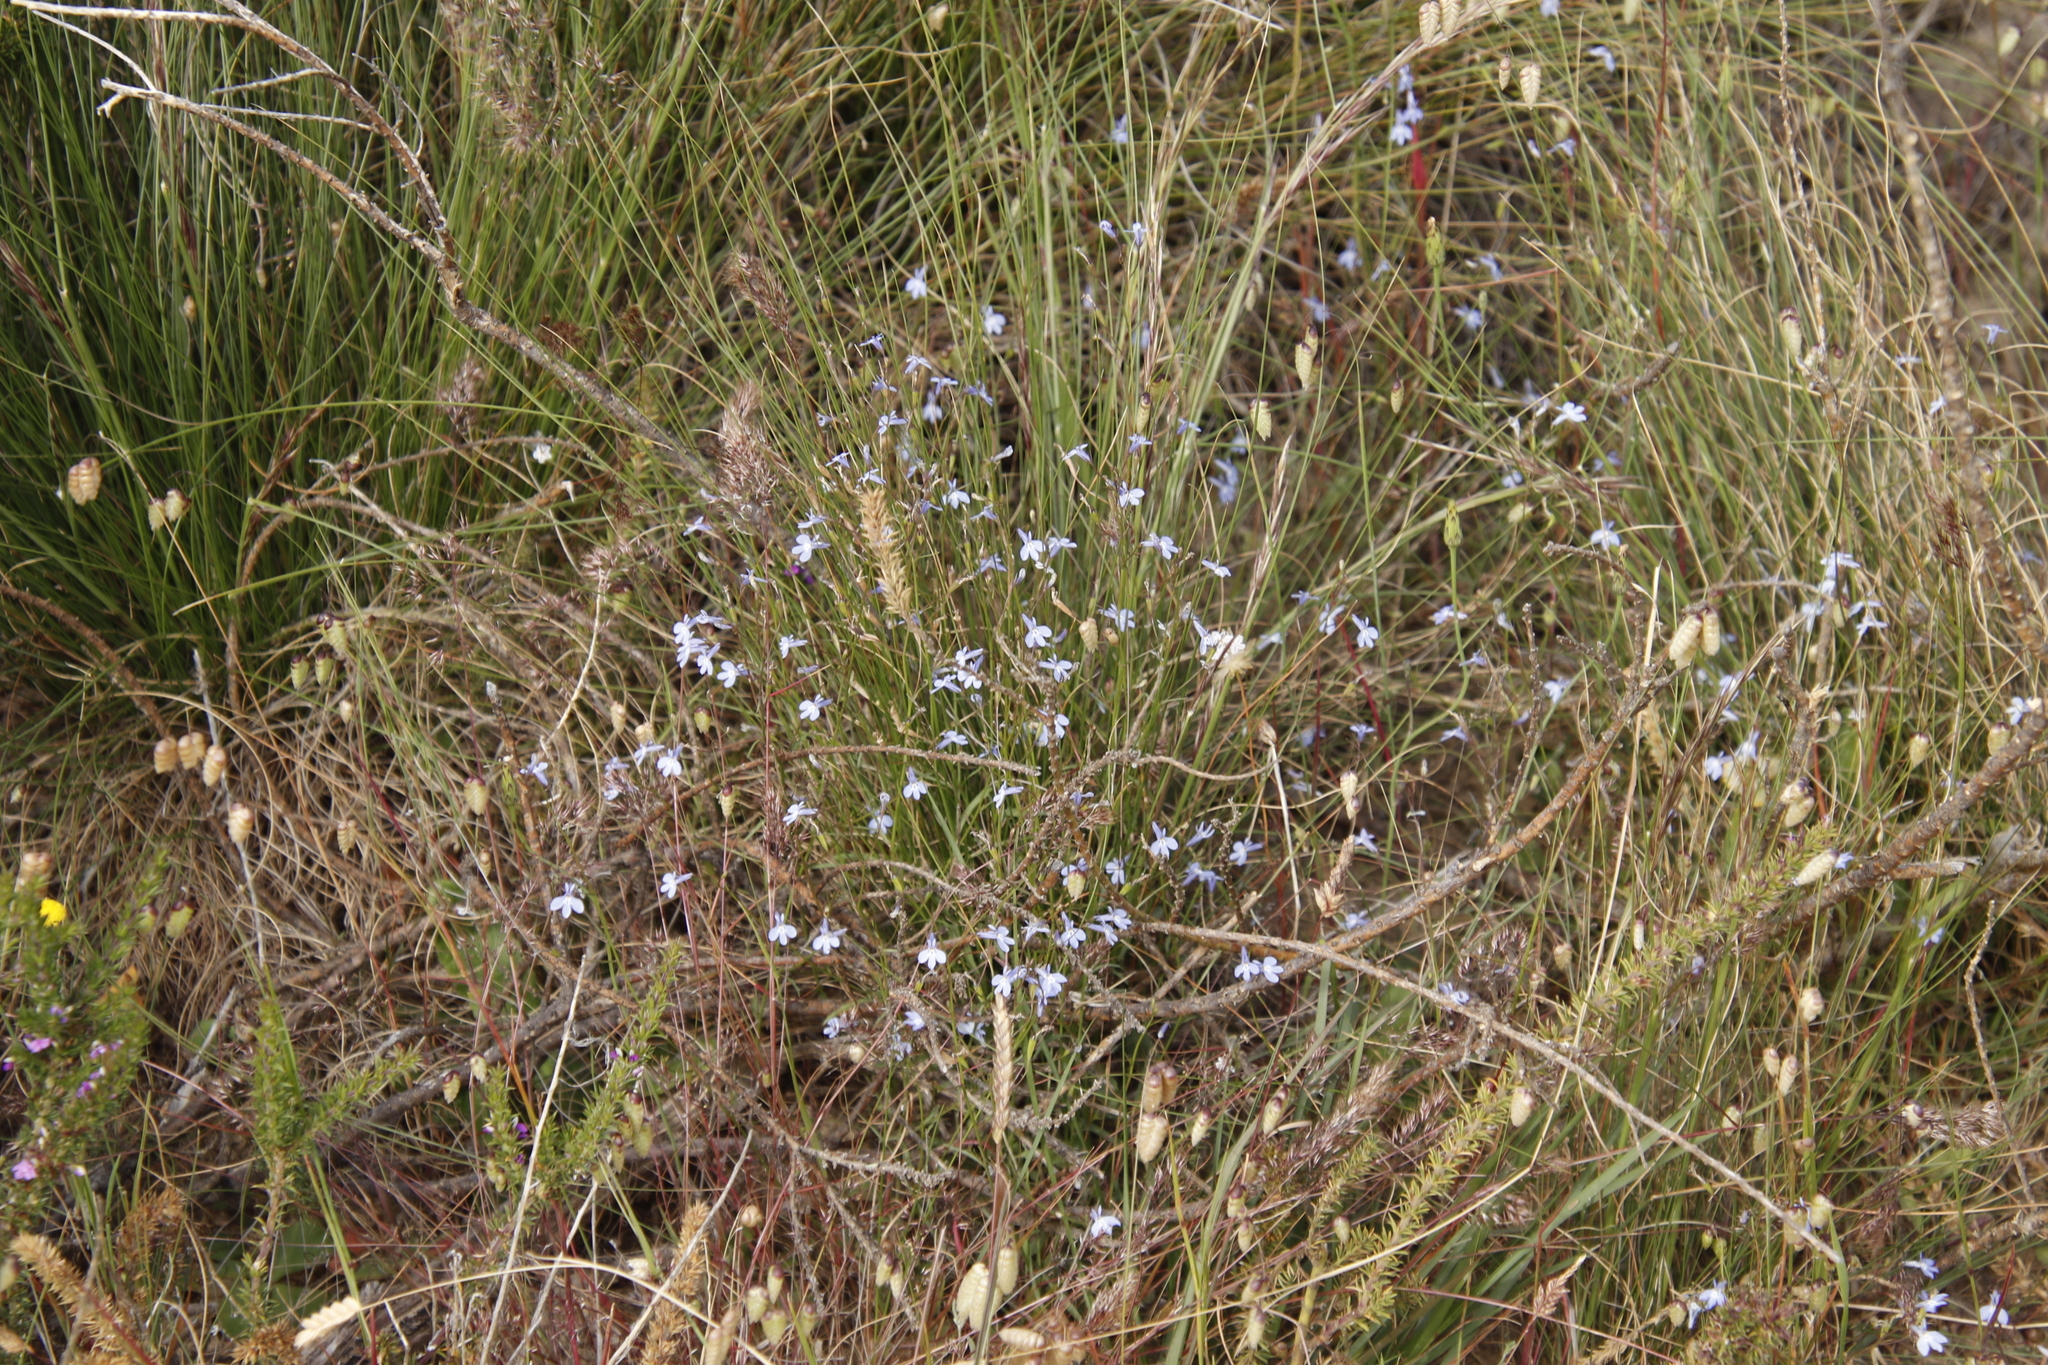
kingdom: Plantae
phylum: Tracheophyta
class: Magnoliopsida
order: Asterales
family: Campanulaceae
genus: Lobelia
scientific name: Lobelia erinus
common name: Edging lobelia
